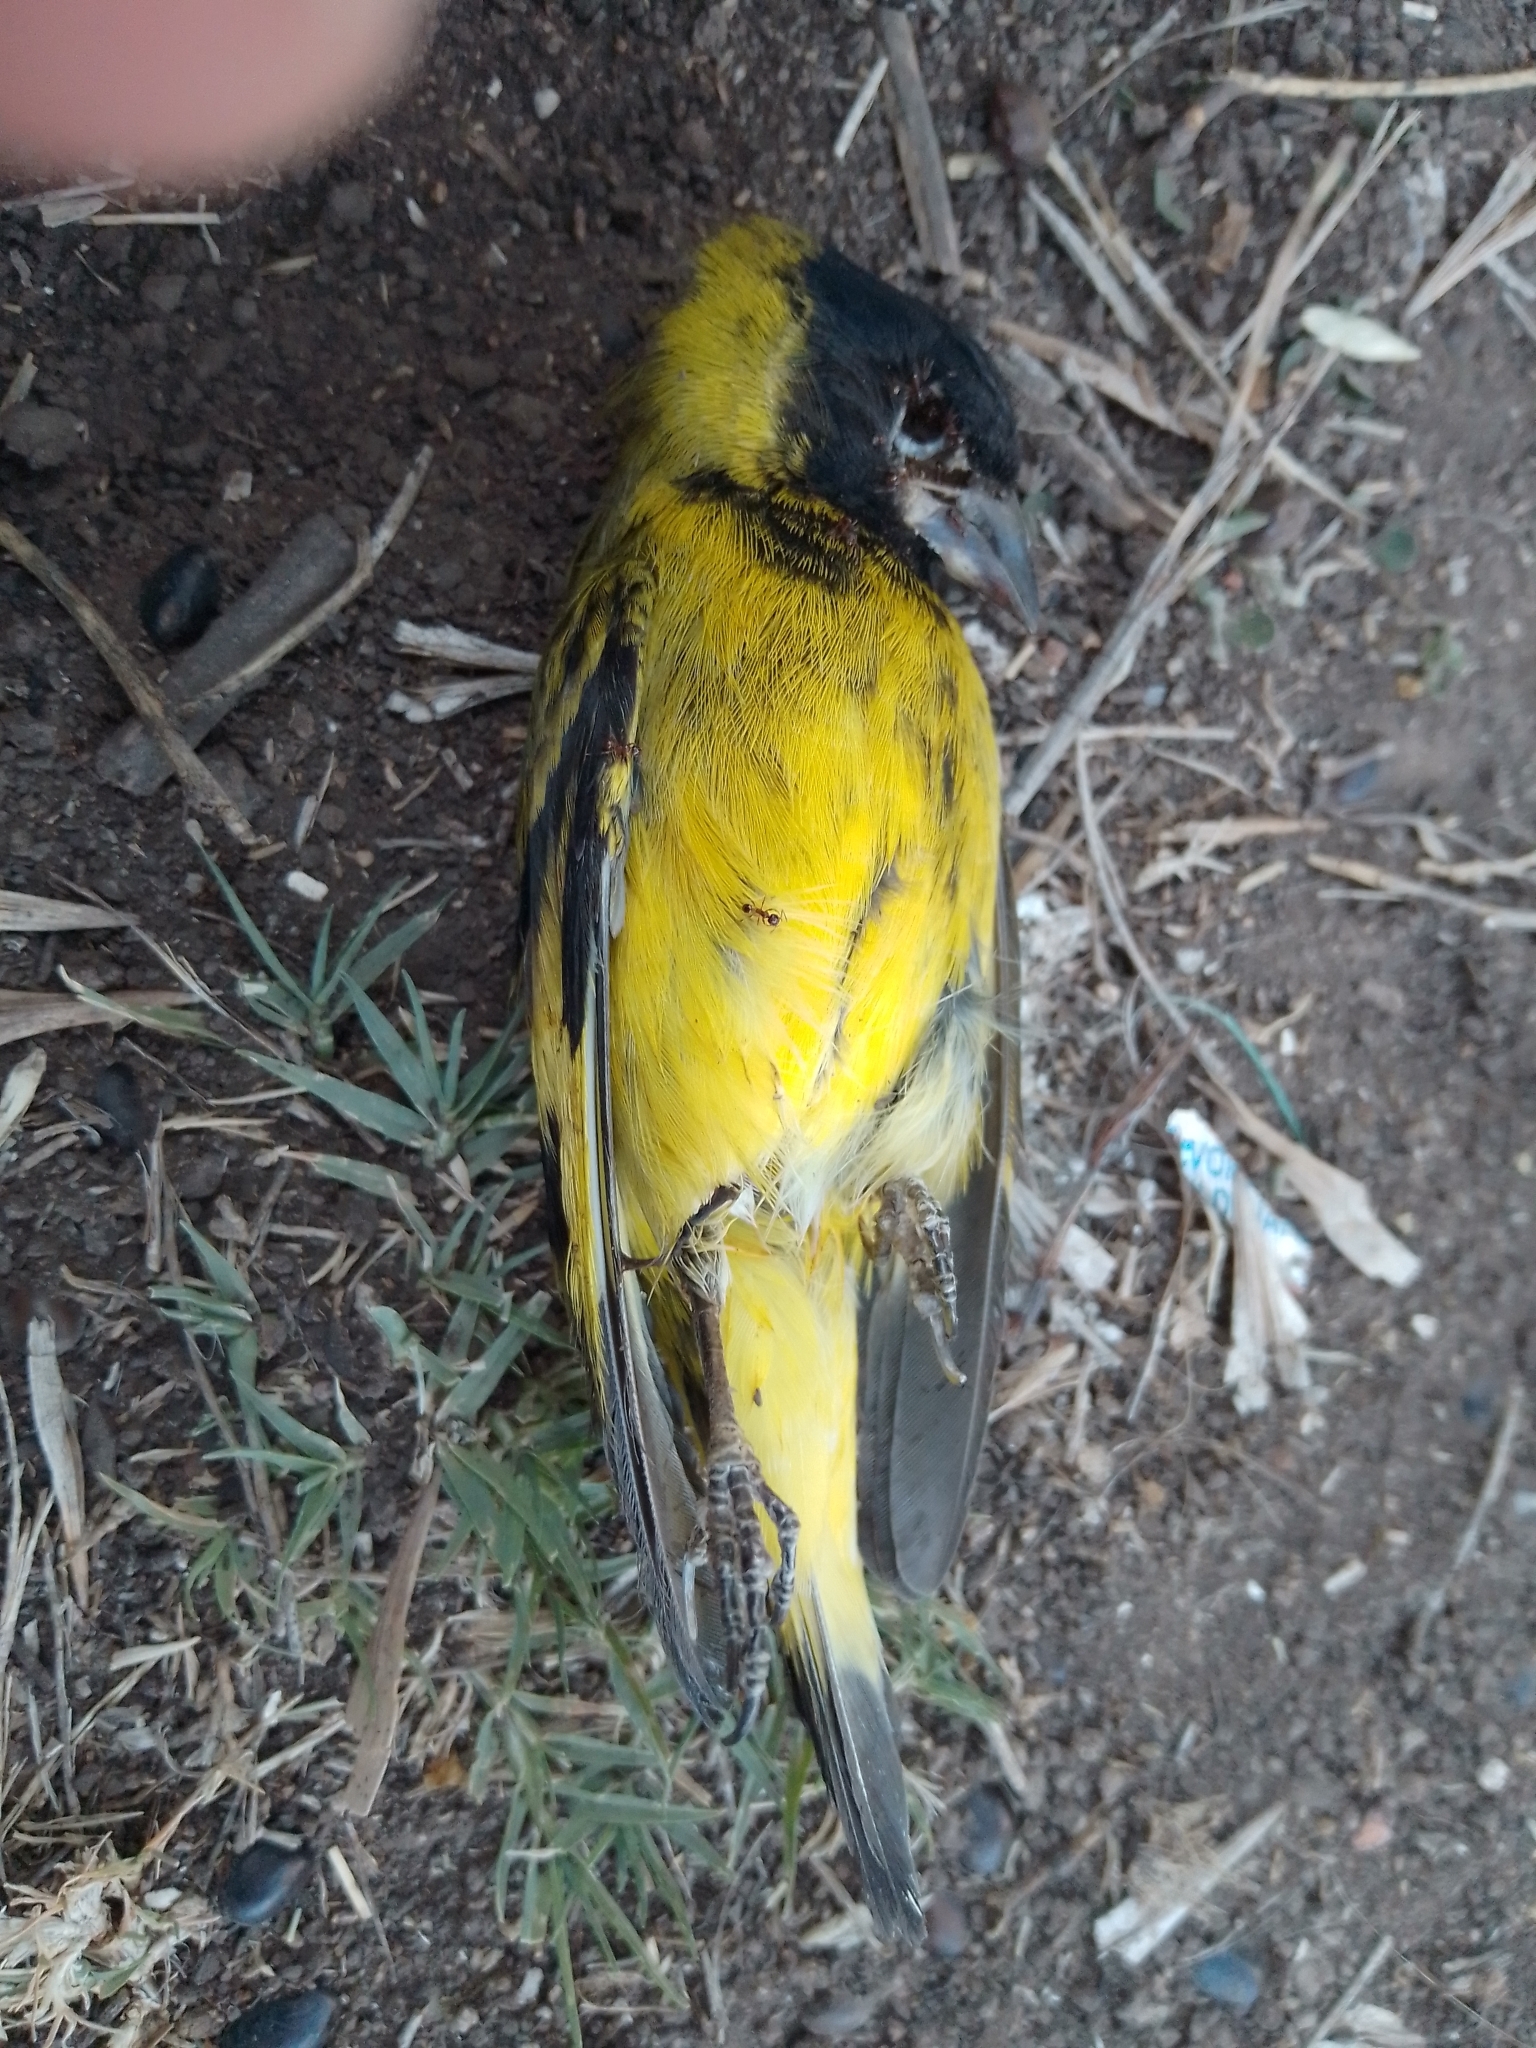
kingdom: Animalia
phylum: Chordata
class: Aves
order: Passeriformes
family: Fringillidae
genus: Spinus
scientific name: Spinus magellanicus
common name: Hooded siskin
